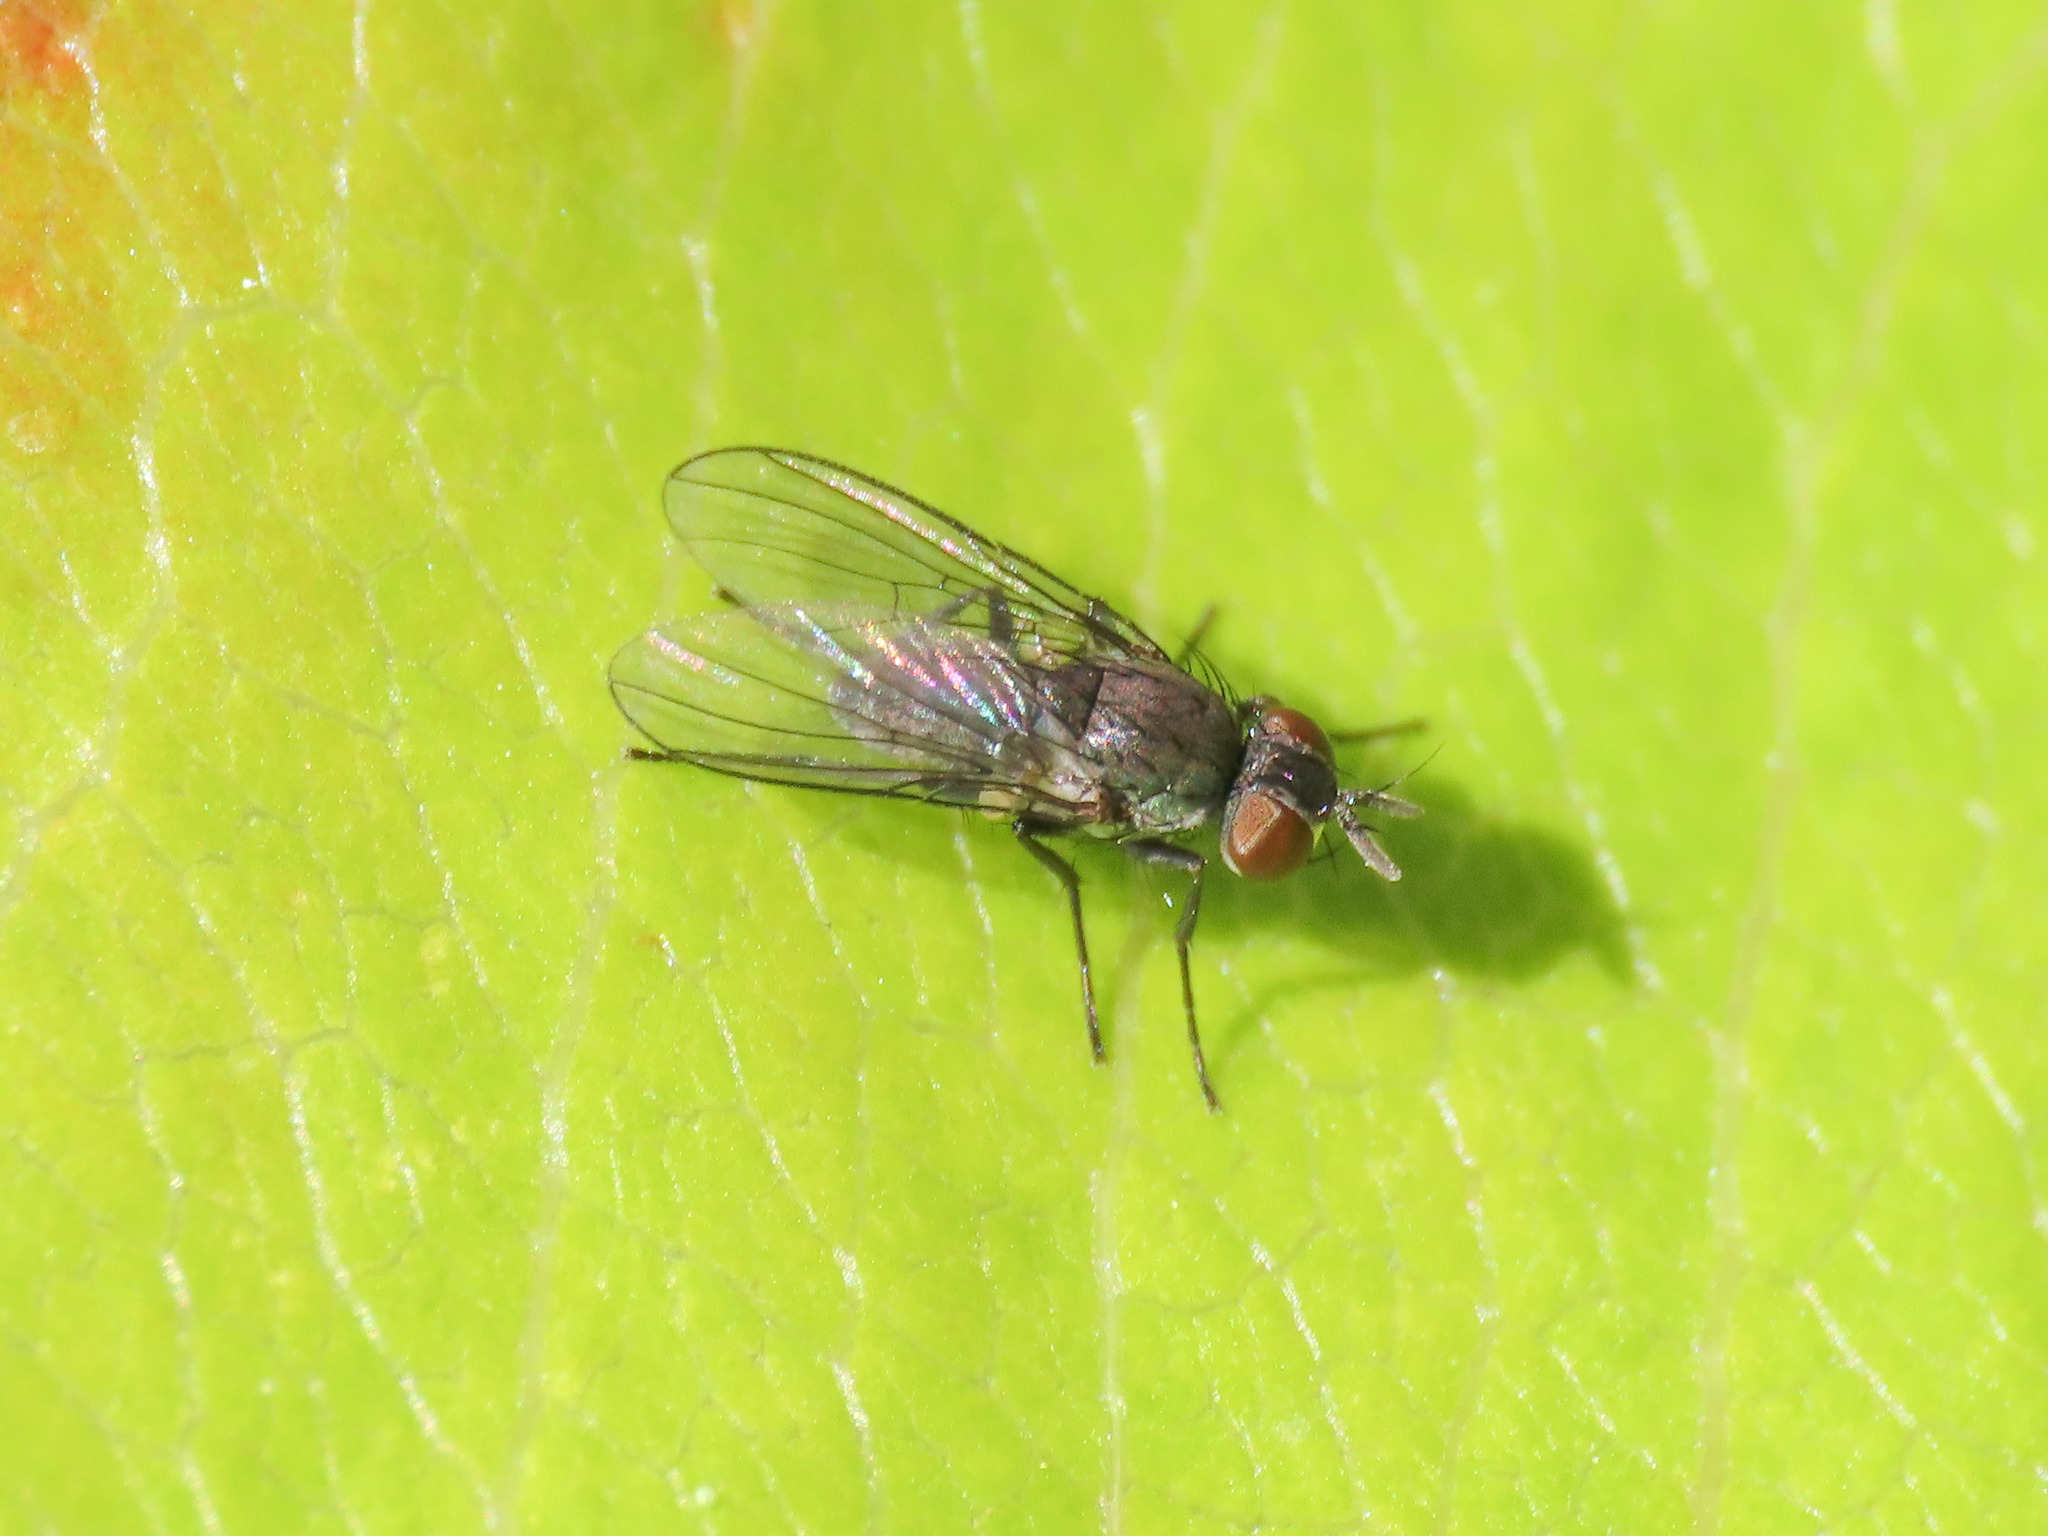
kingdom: Animalia
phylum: Arthropoda
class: Insecta
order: Diptera
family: Muscidae
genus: Coenosia
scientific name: Coenosia agromyzina
